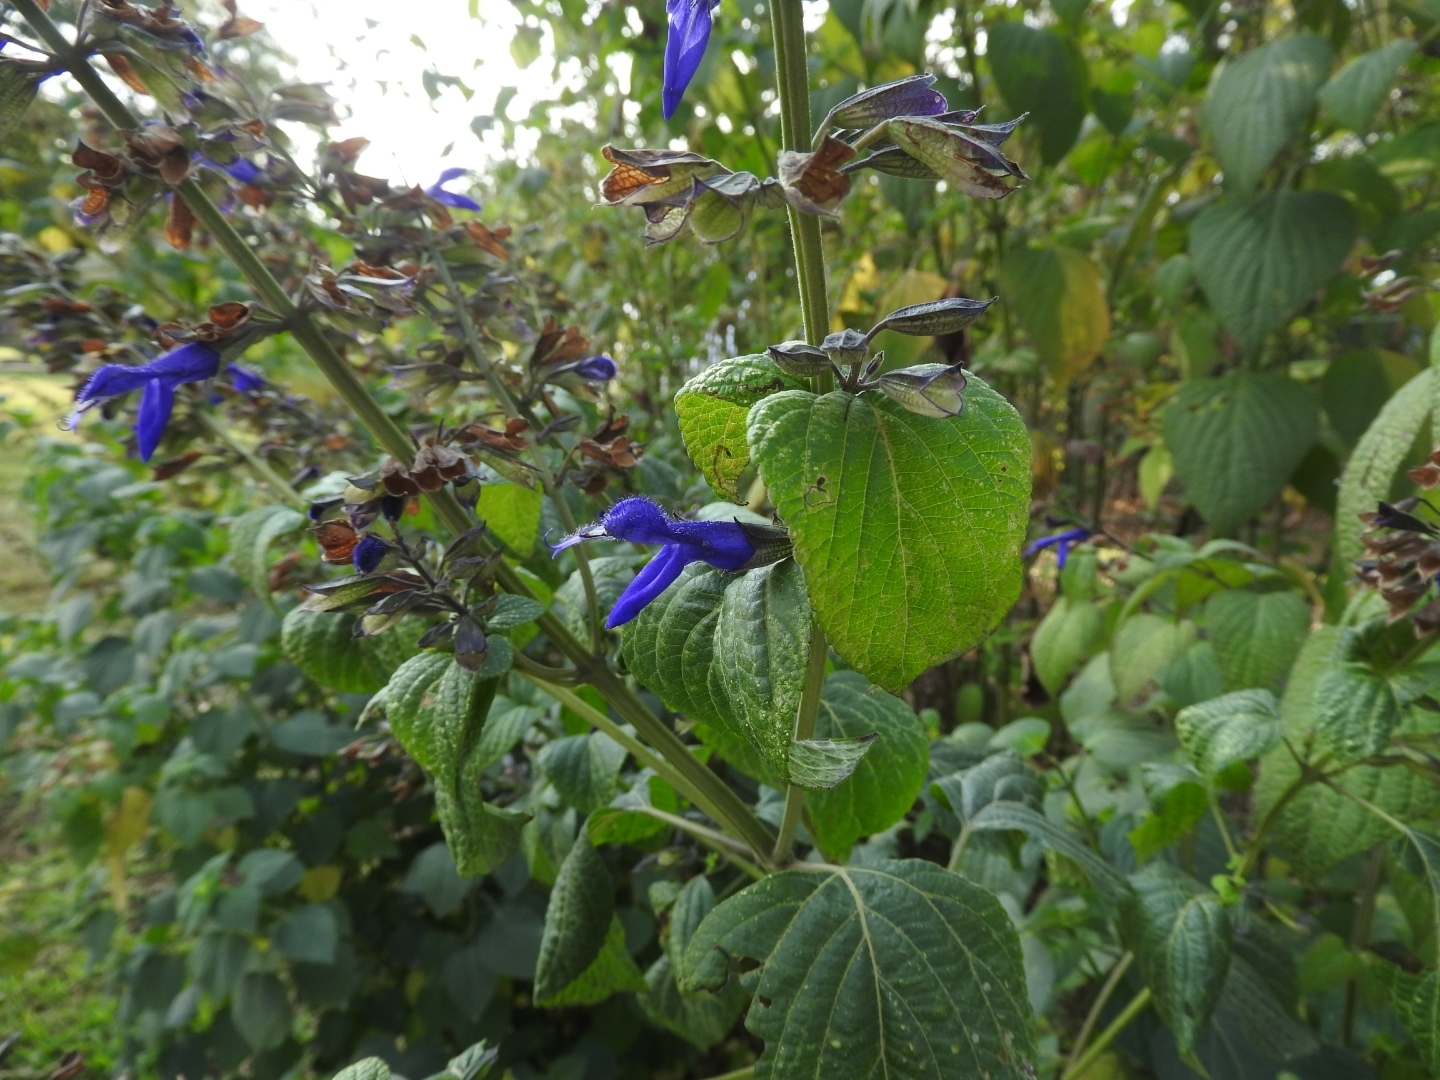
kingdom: Plantae
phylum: Tracheophyta
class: Magnoliopsida
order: Lamiales
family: Lamiaceae
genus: Salvia
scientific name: Salvia mexicana
